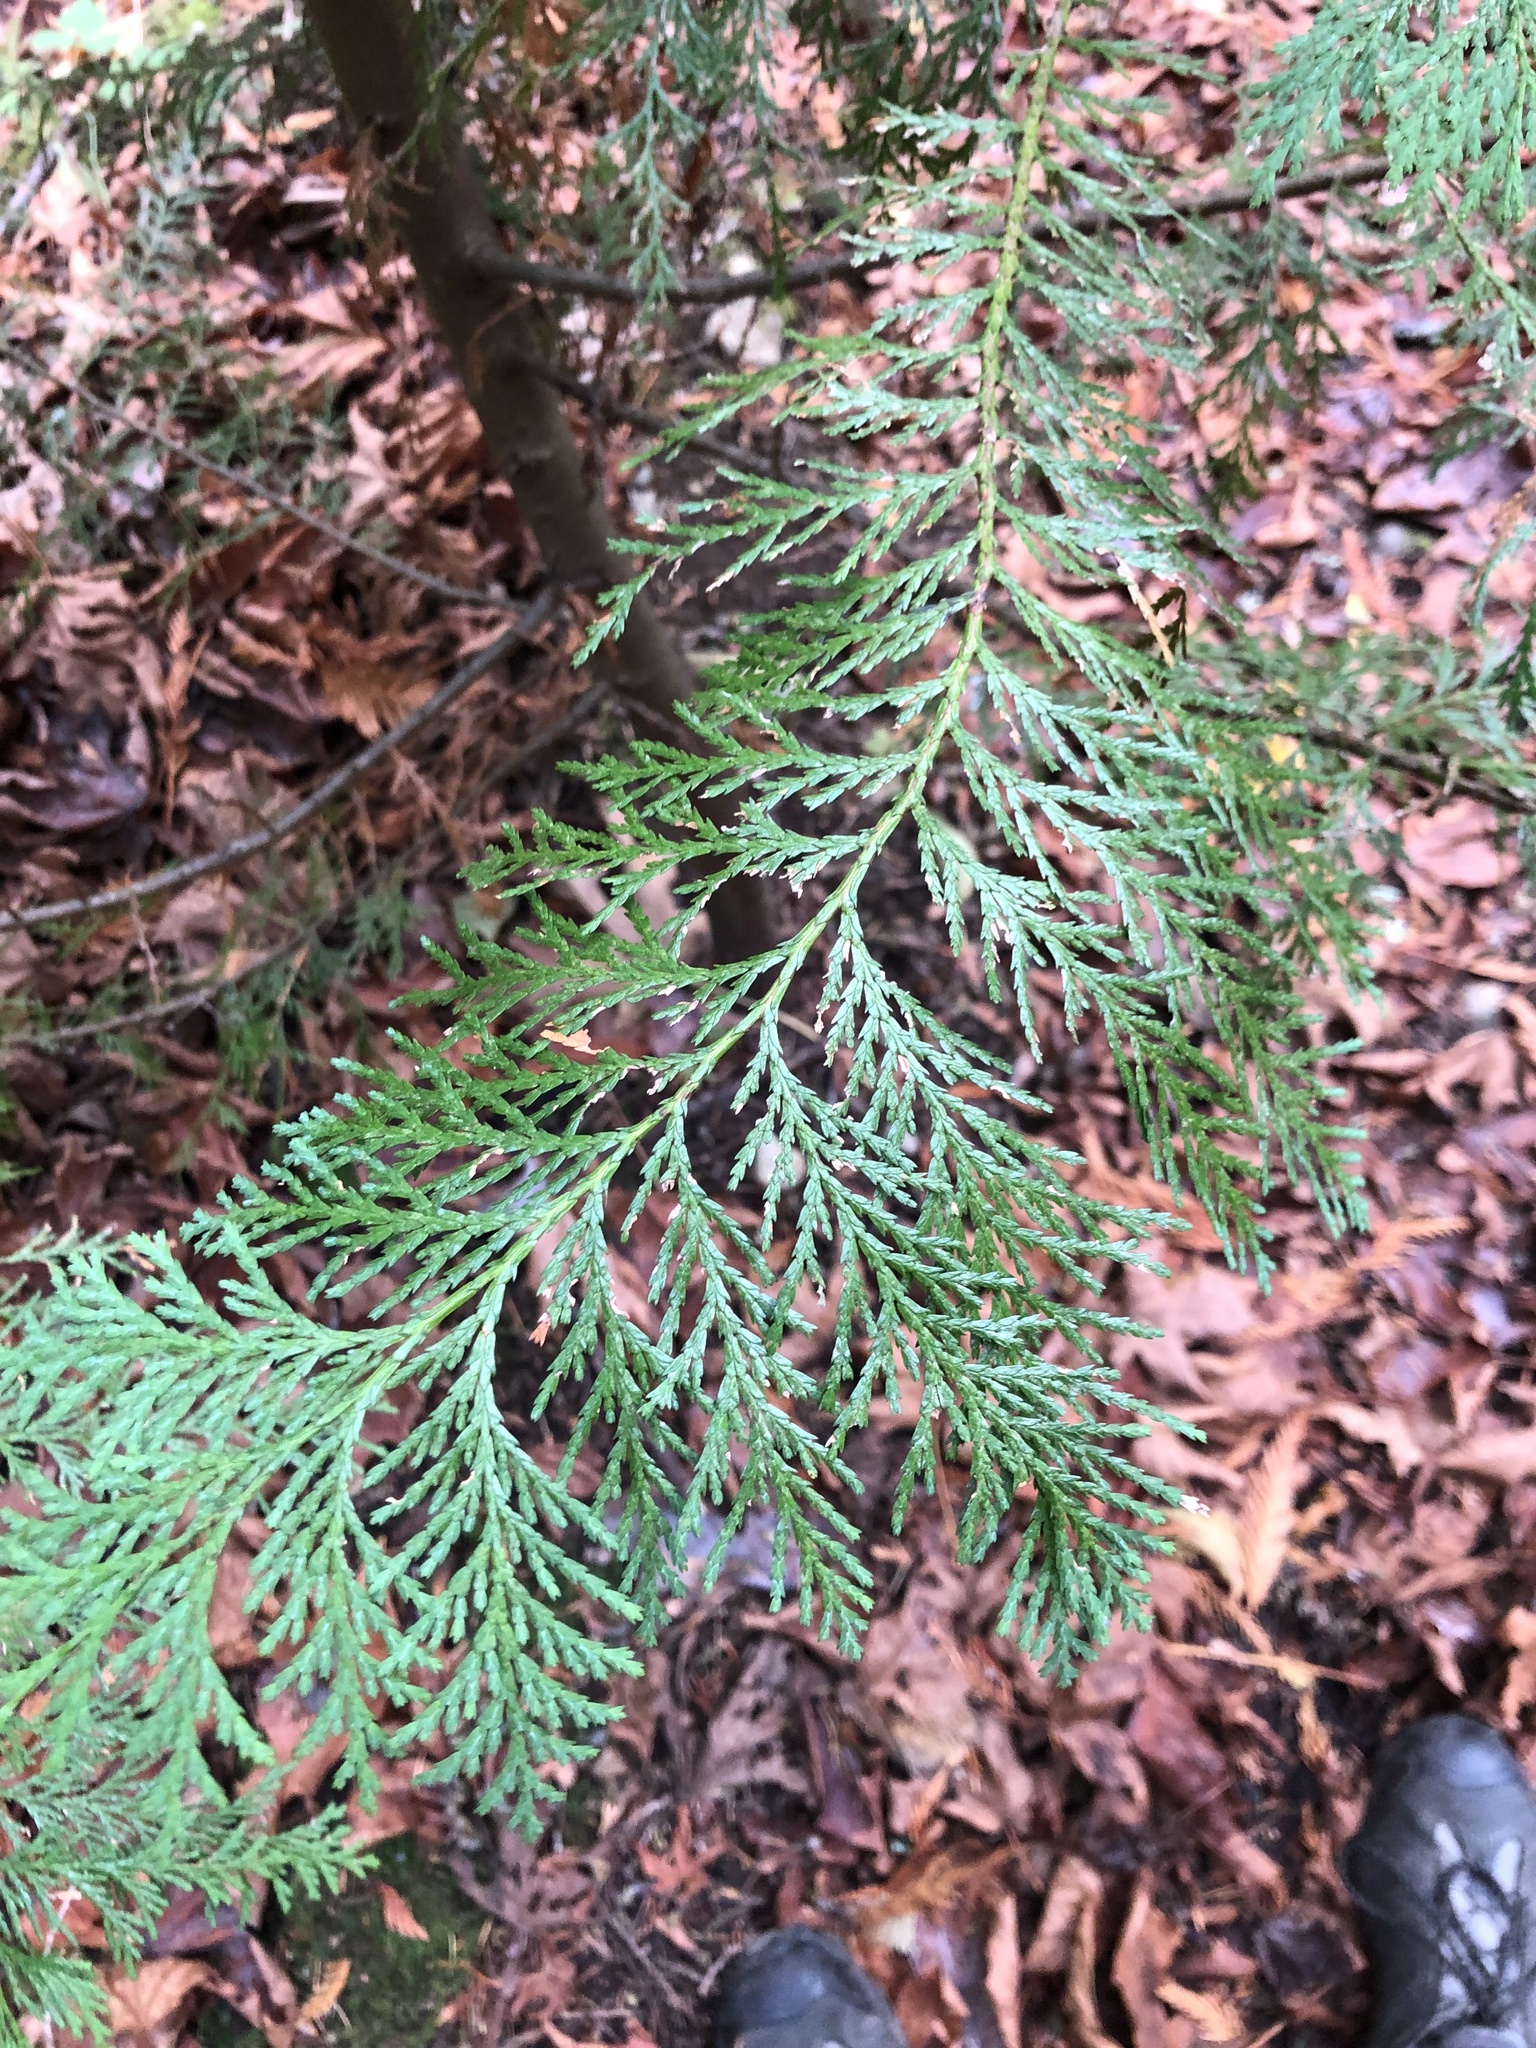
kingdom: Plantae
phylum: Tracheophyta
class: Pinopsida
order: Pinales
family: Cupressaceae
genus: Chamaecyparis
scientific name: Chamaecyparis lawsoniana
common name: Lawson's cypress
